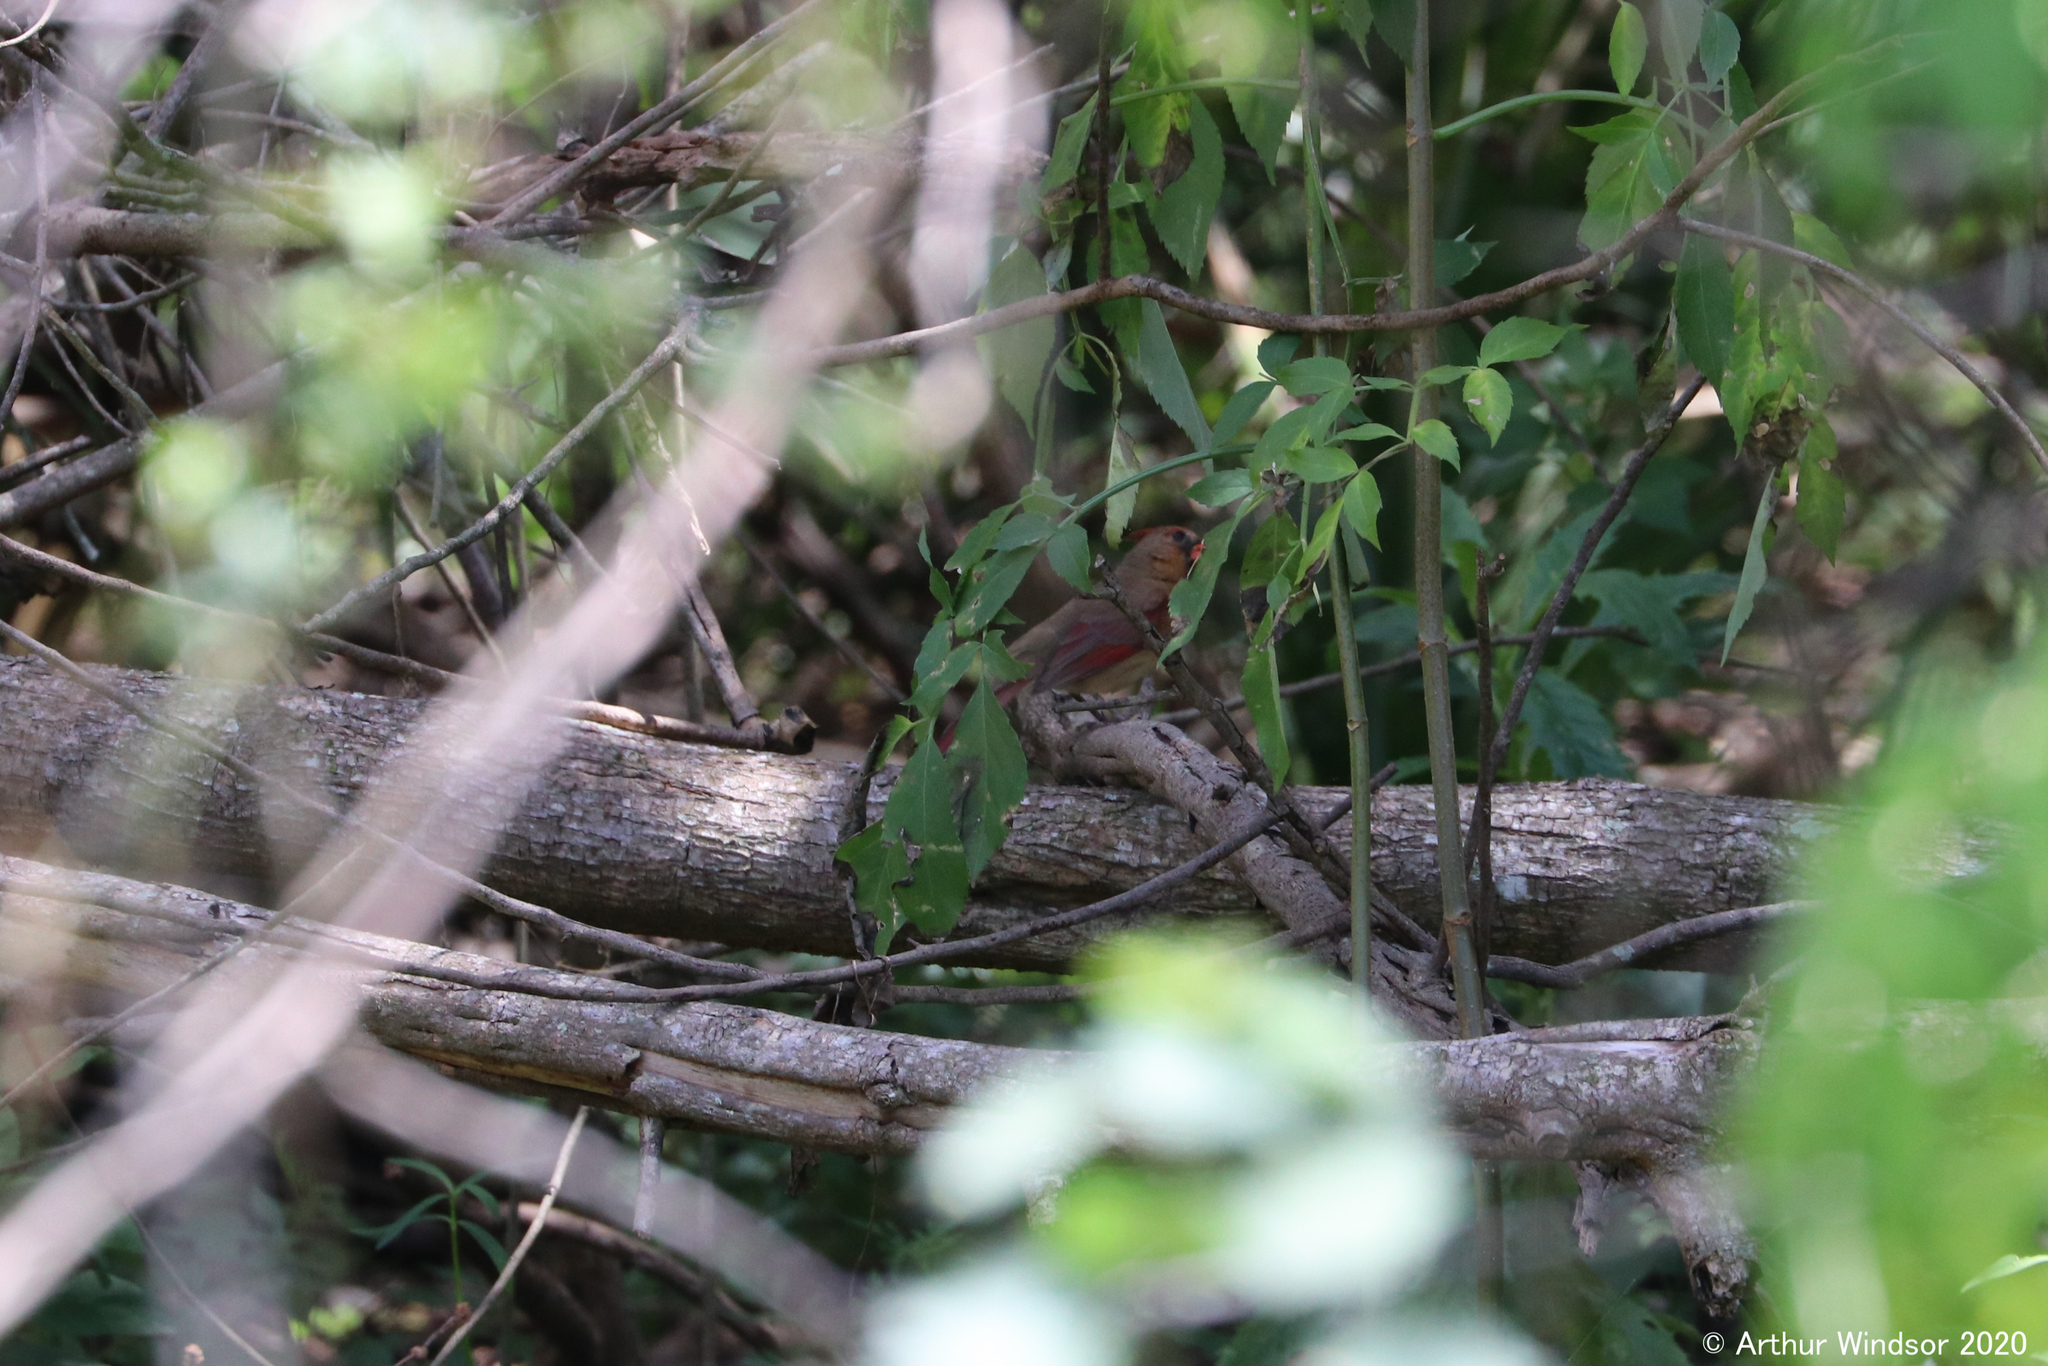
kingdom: Animalia
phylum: Chordata
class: Aves
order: Passeriformes
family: Cardinalidae
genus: Cardinalis
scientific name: Cardinalis cardinalis
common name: Northern cardinal
